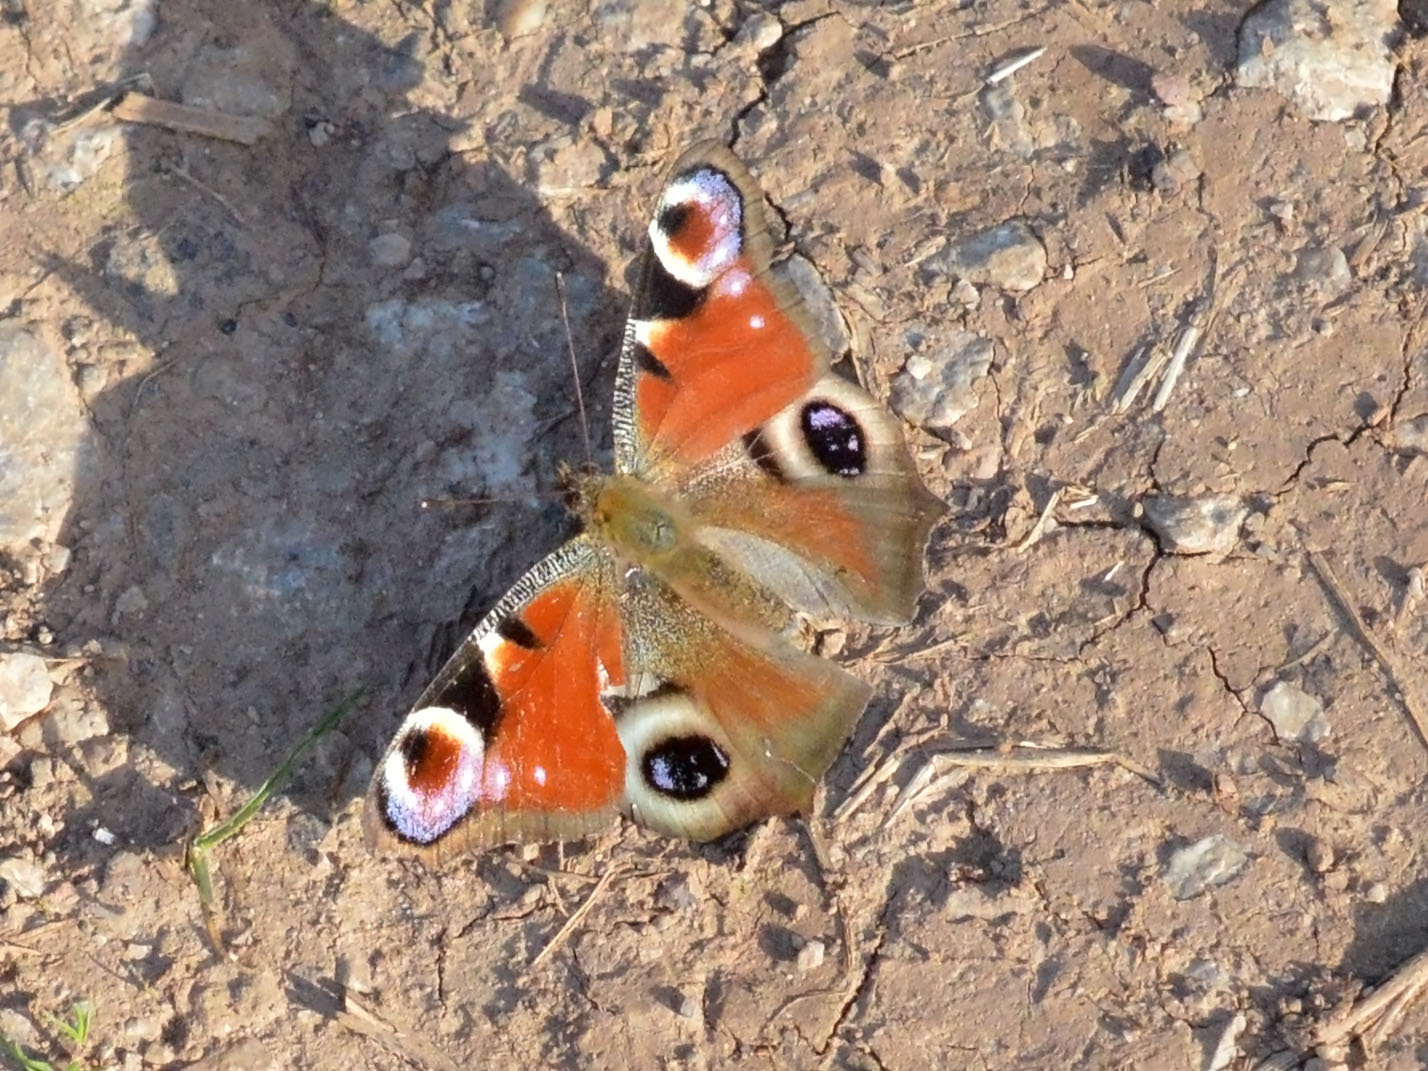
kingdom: Animalia
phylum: Arthropoda
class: Insecta
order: Lepidoptera
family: Nymphalidae
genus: Aglais
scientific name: Aglais io
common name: Peacock
